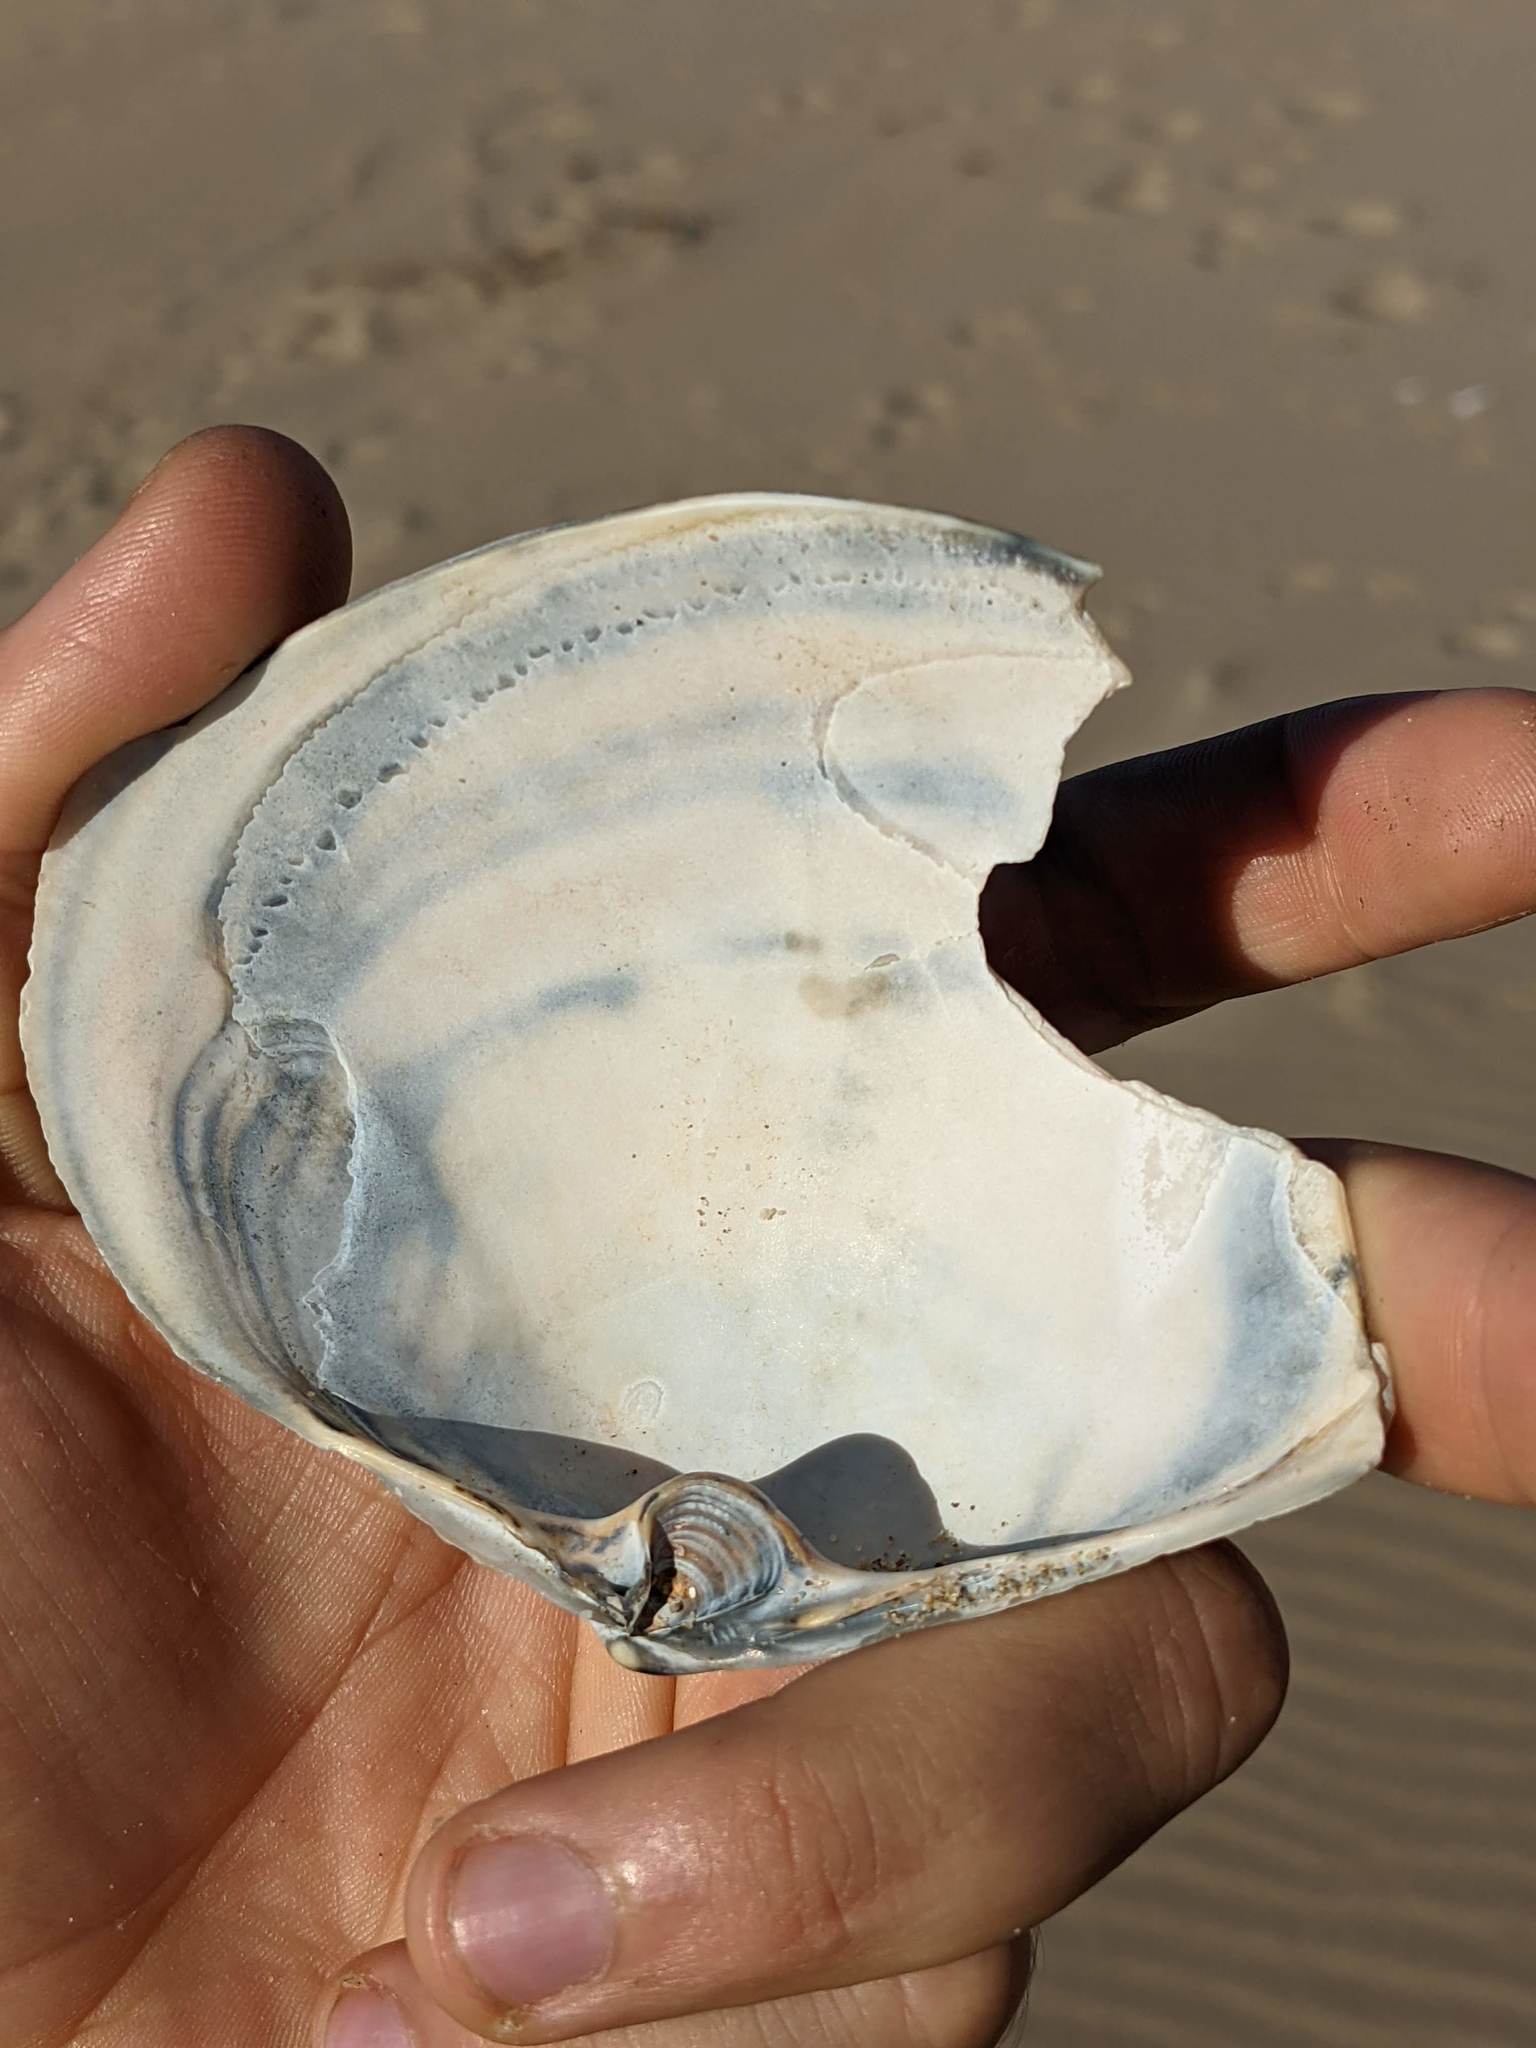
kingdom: Animalia
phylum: Mollusca
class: Bivalvia
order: Venerida
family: Mactridae
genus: Mactromeris
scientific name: Mactromeris catilliformis
